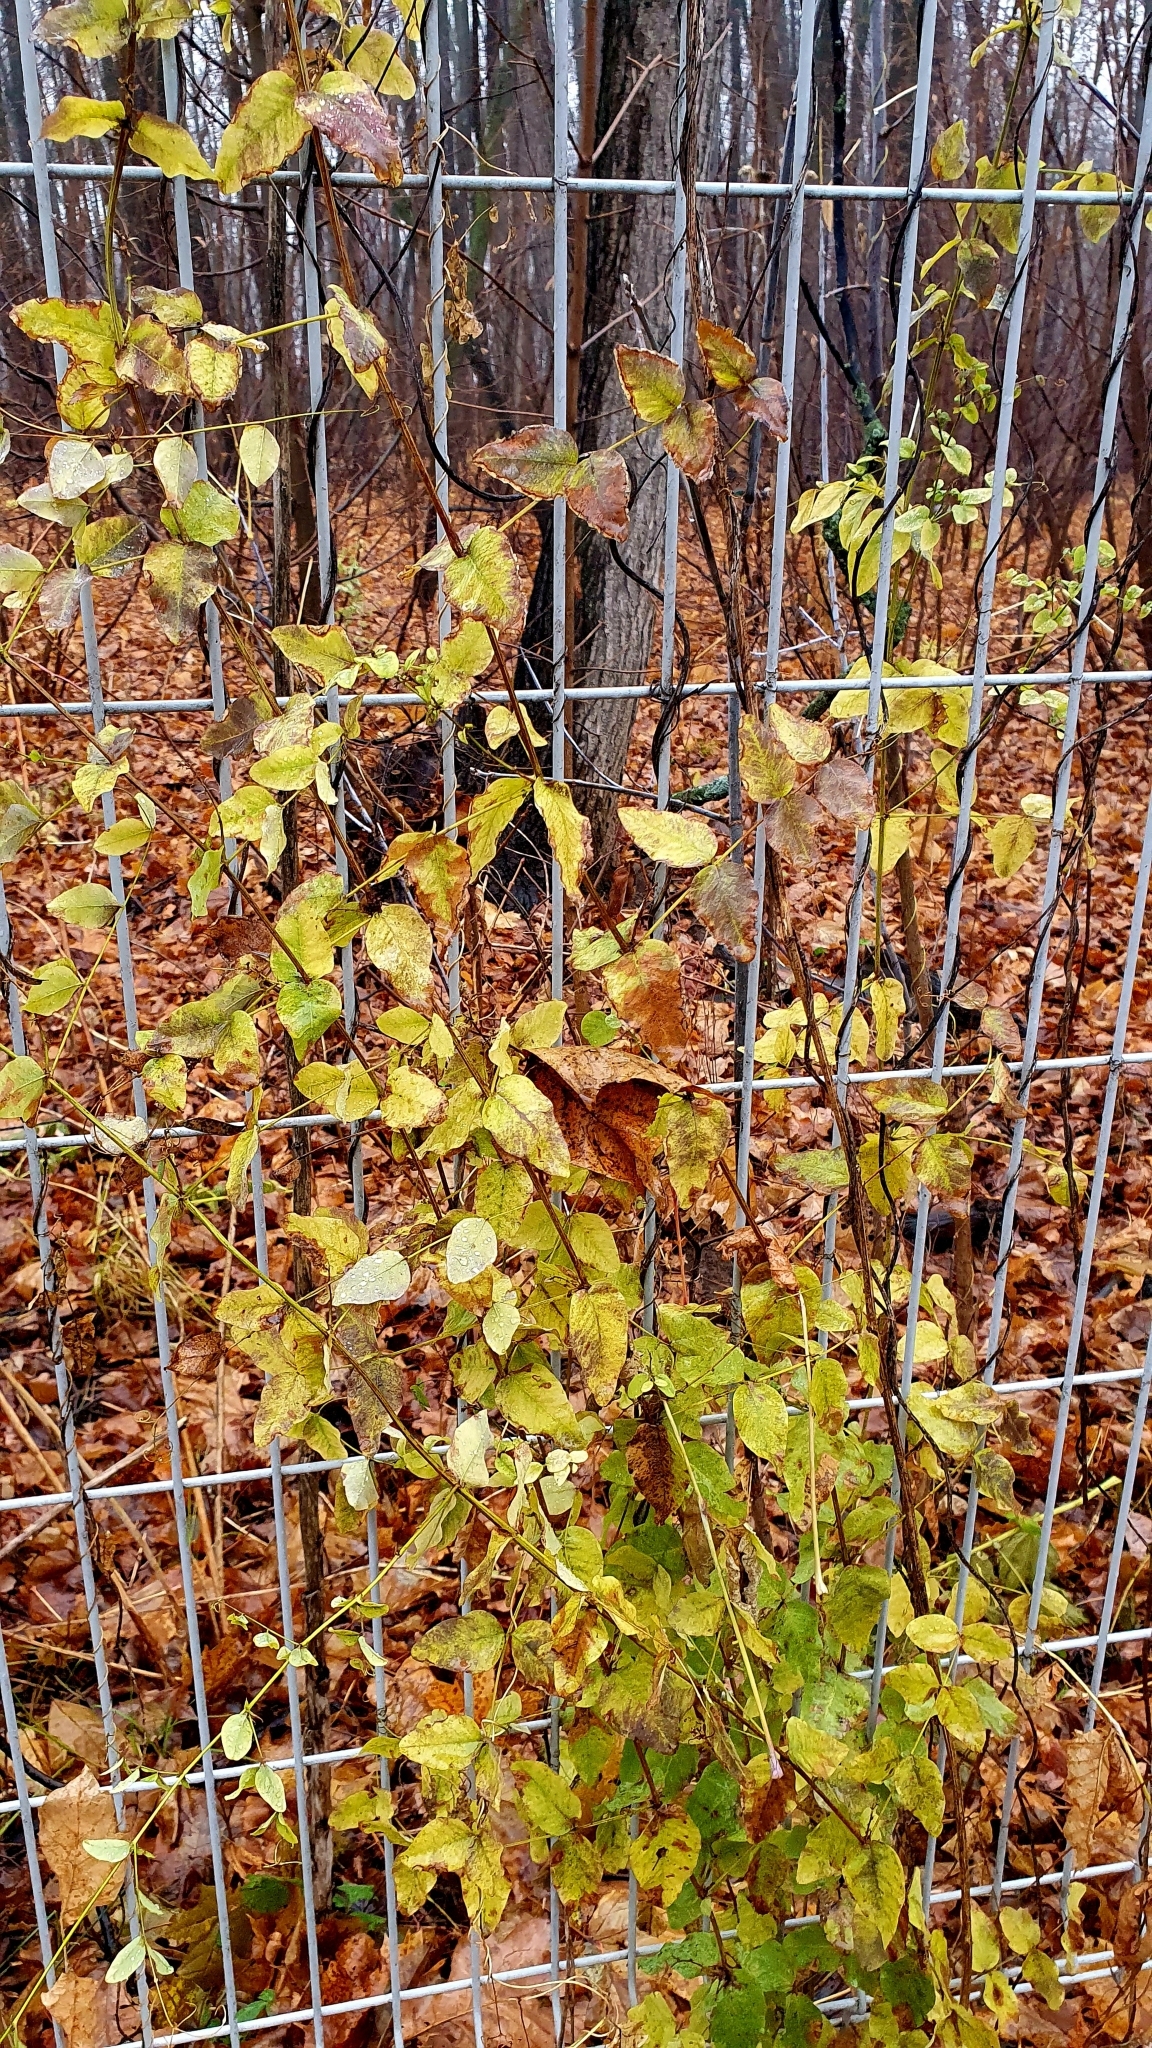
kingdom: Plantae
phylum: Tracheophyta
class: Magnoliopsida
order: Fabales
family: Fabaceae
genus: Vicia
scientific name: Vicia pisiformis
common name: Pale-flower vetch
